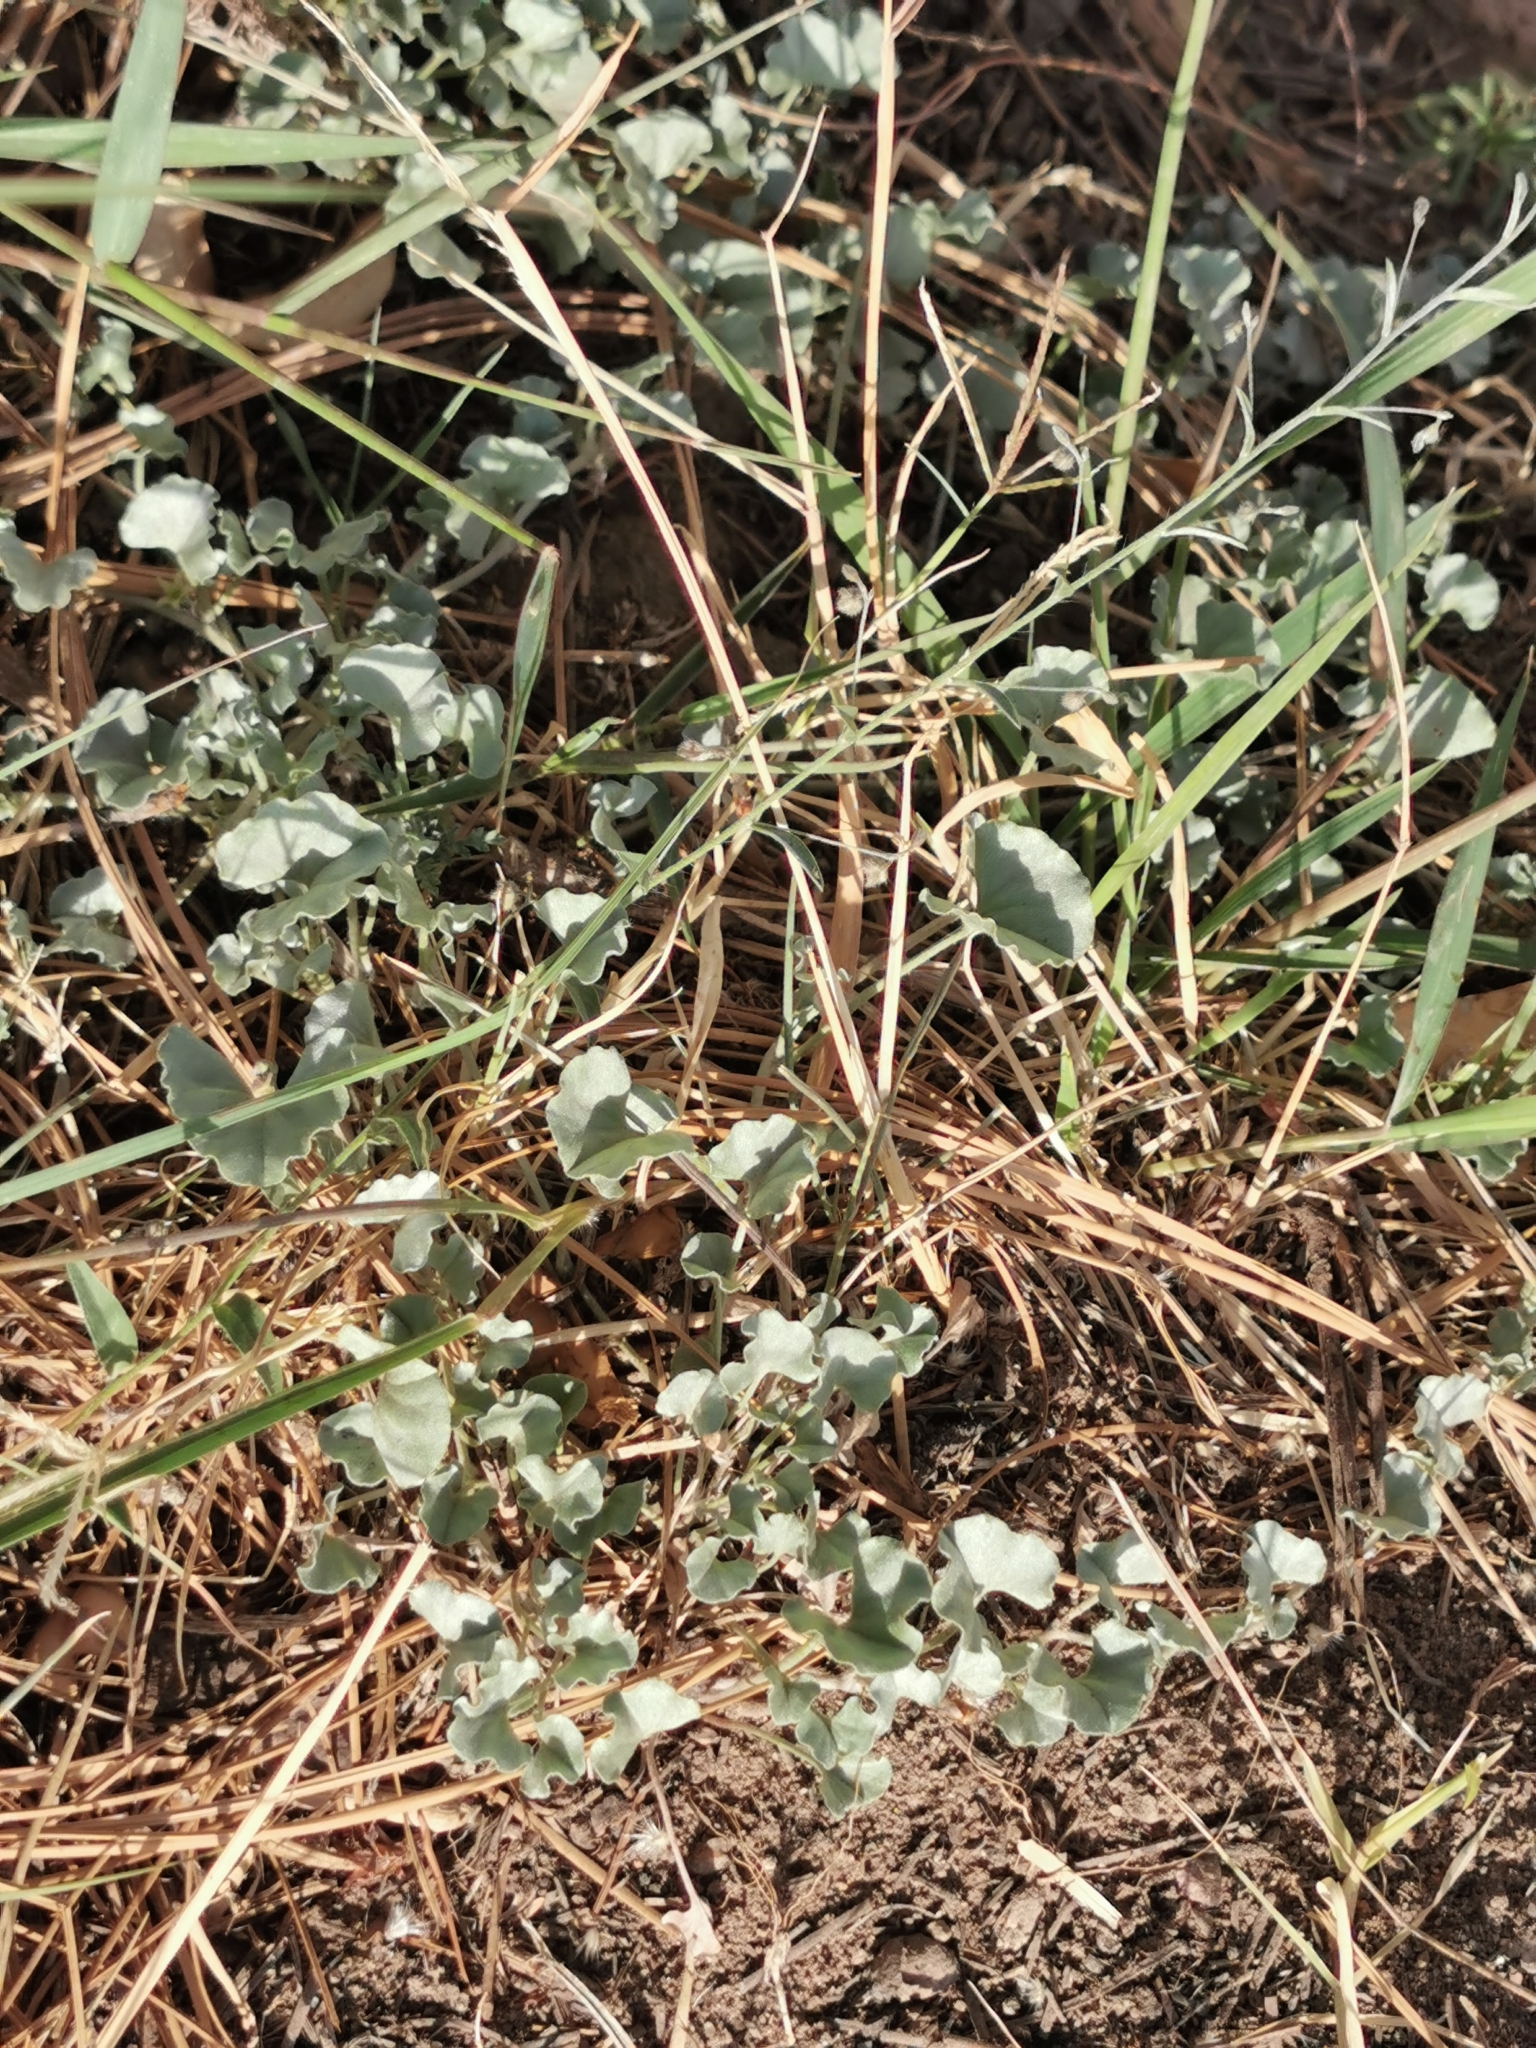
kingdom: Plantae
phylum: Tracheophyta
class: Magnoliopsida
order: Solanales
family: Convolvulaceae
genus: Dichondra
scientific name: Dichondra argentea
